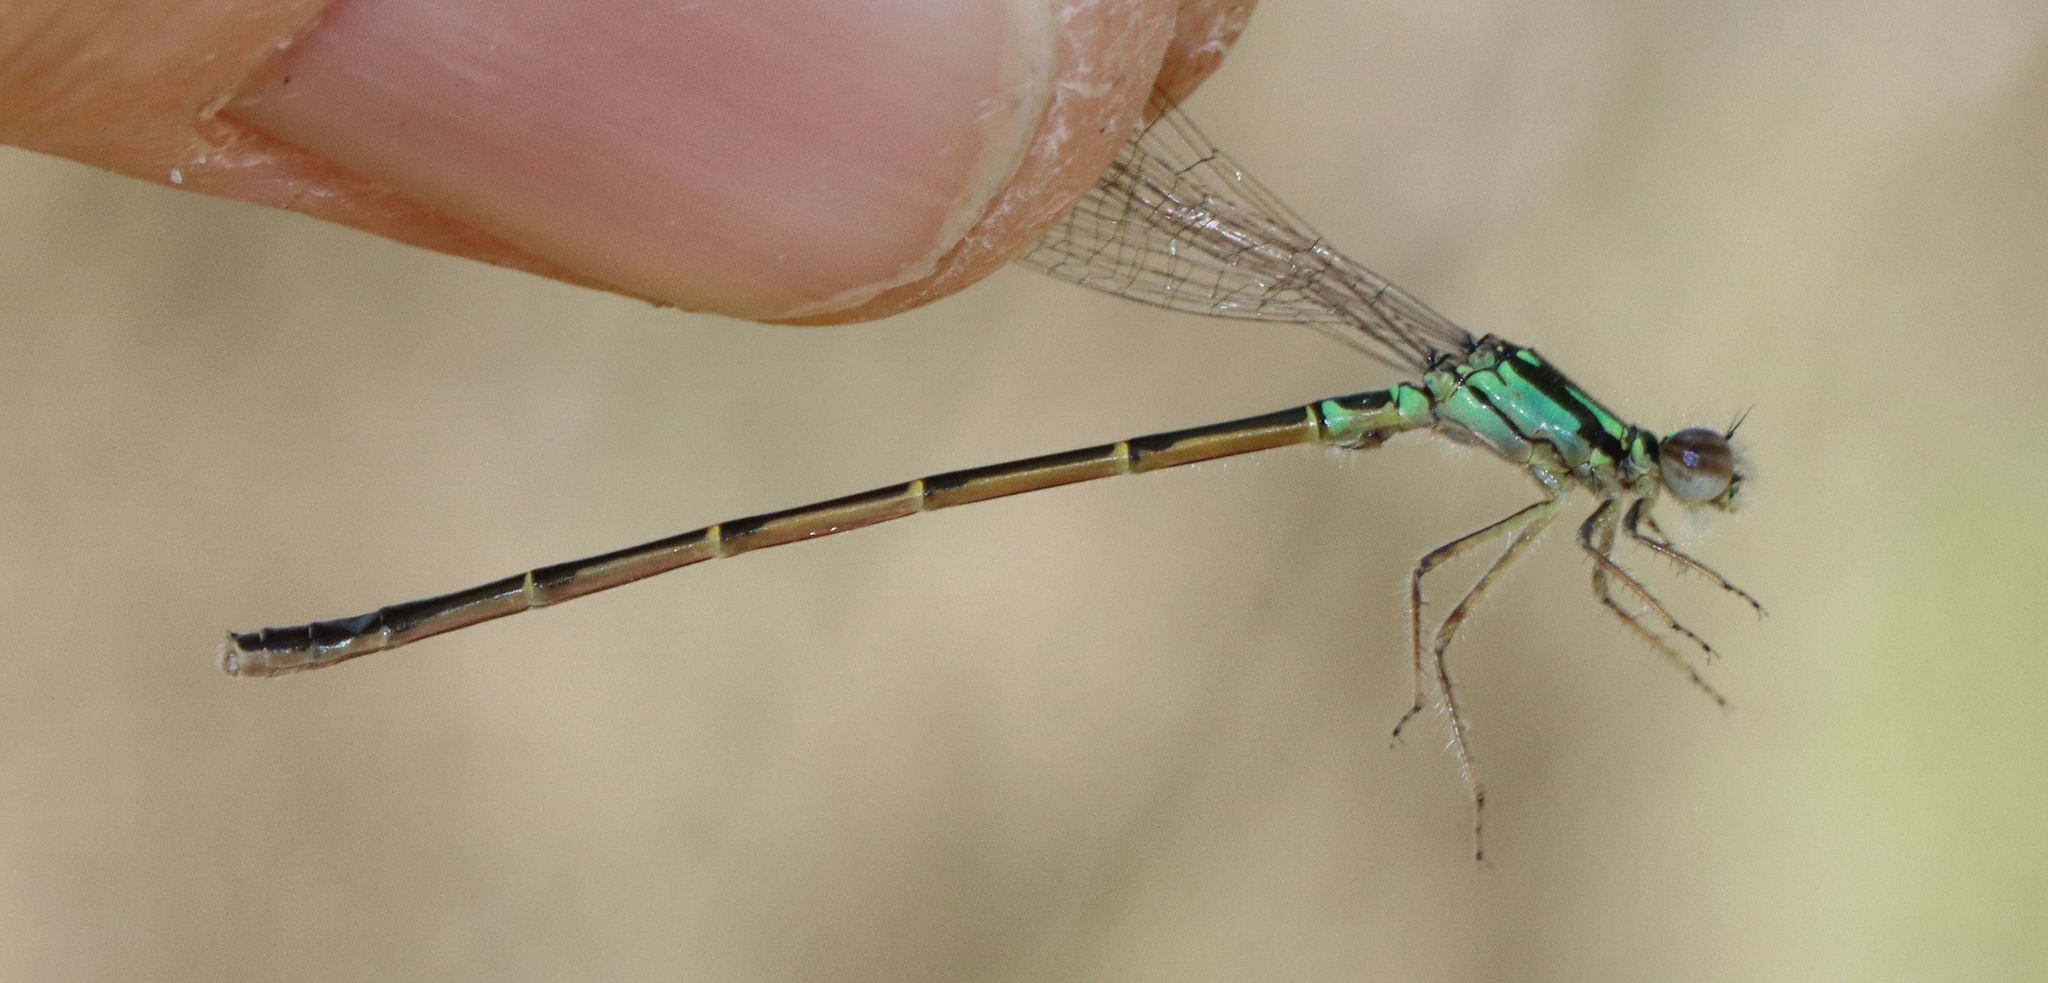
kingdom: Animalia
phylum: Arthropoda
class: Insecta
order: Odonata
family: Coenagrionidae
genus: Ischnura
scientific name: Ischnura posita
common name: Fragile forktail
